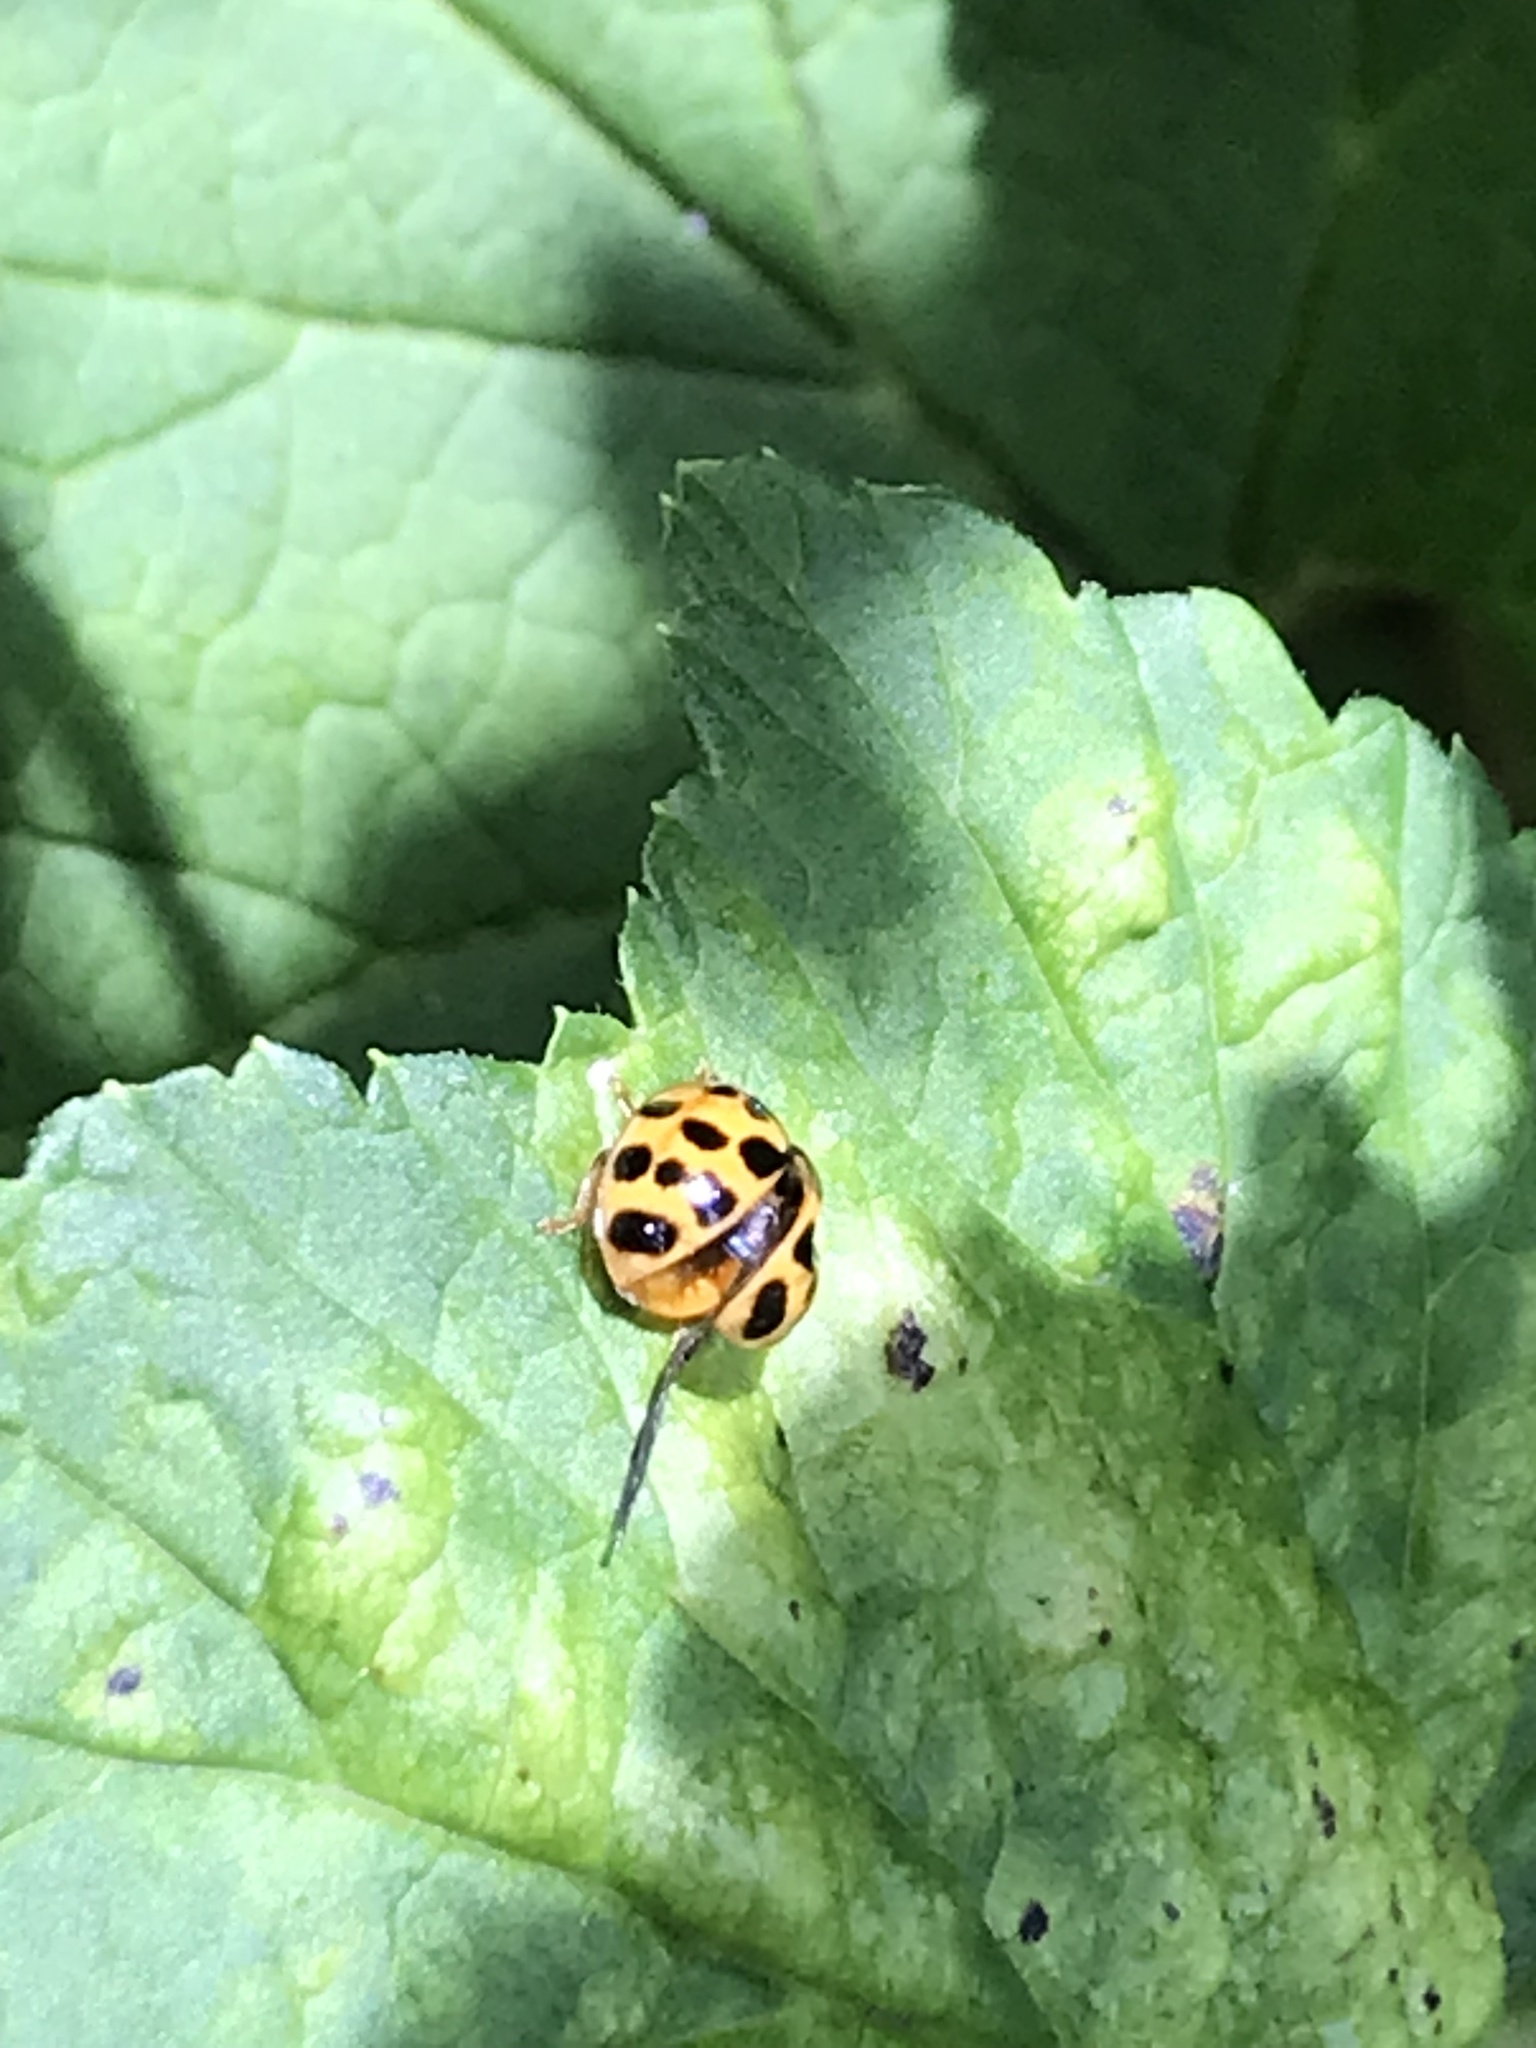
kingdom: Animalia
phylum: Arthropoda
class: Insecta
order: Coleoptera
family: Coccinellidae
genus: Harmonia
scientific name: Harmonia axyridis
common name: Harlequin ladybird
